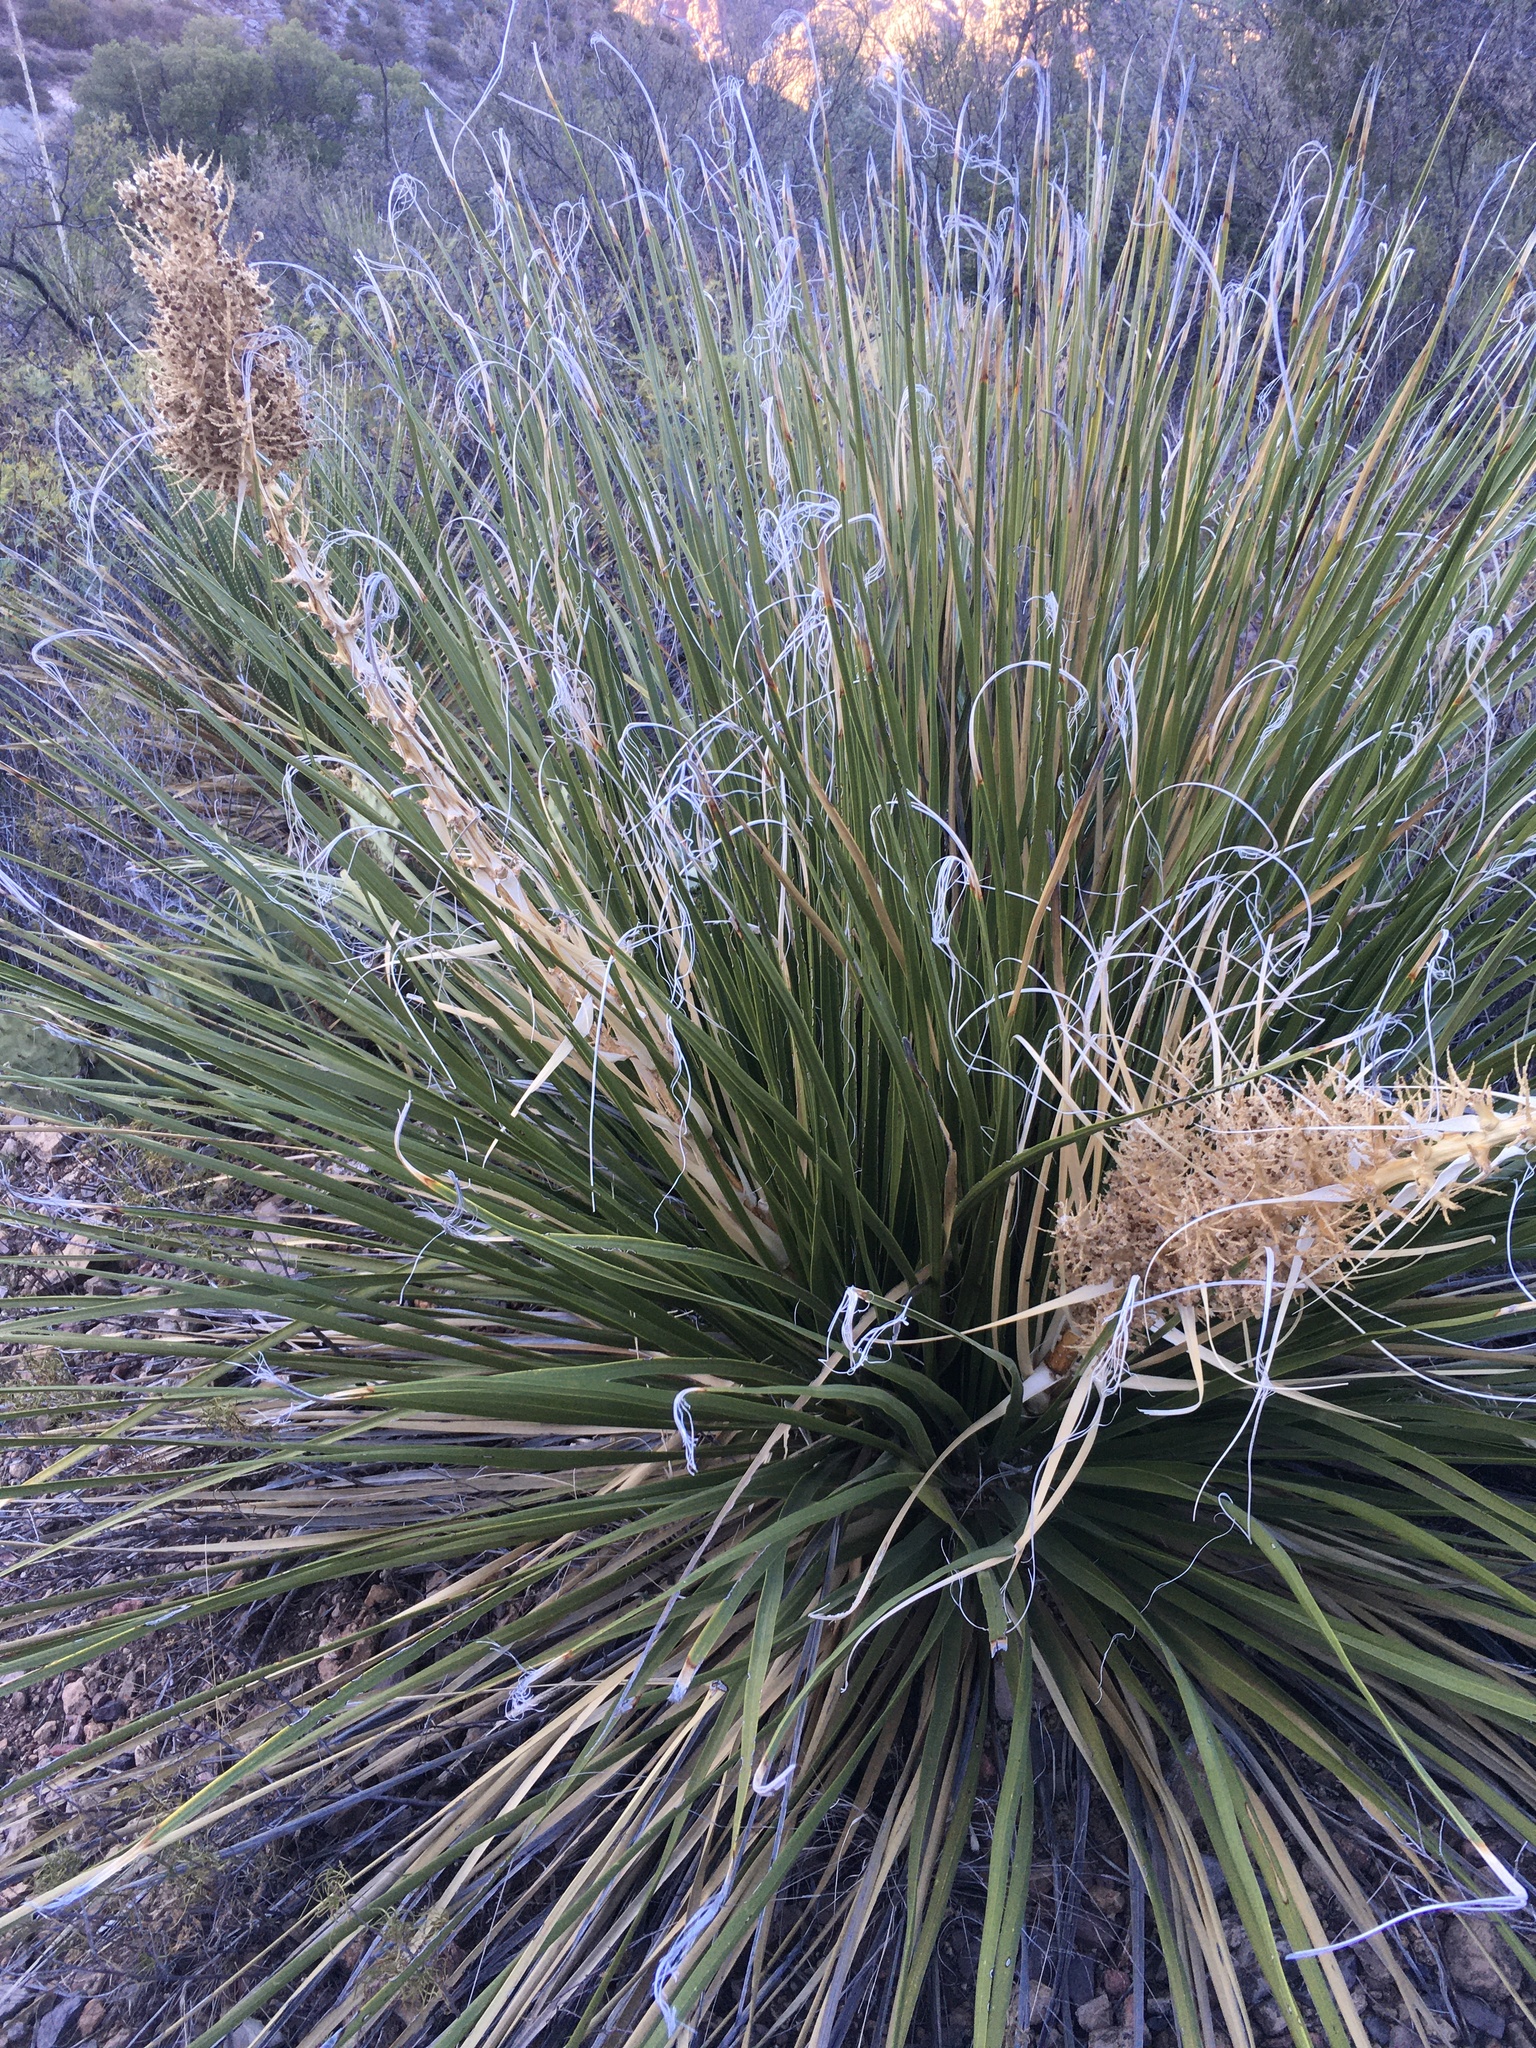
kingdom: Plantae
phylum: Tracheophyta
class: Liliopsida
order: Asparagales
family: Asparagaceae
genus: Nolina
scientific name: Nolina erumpens
